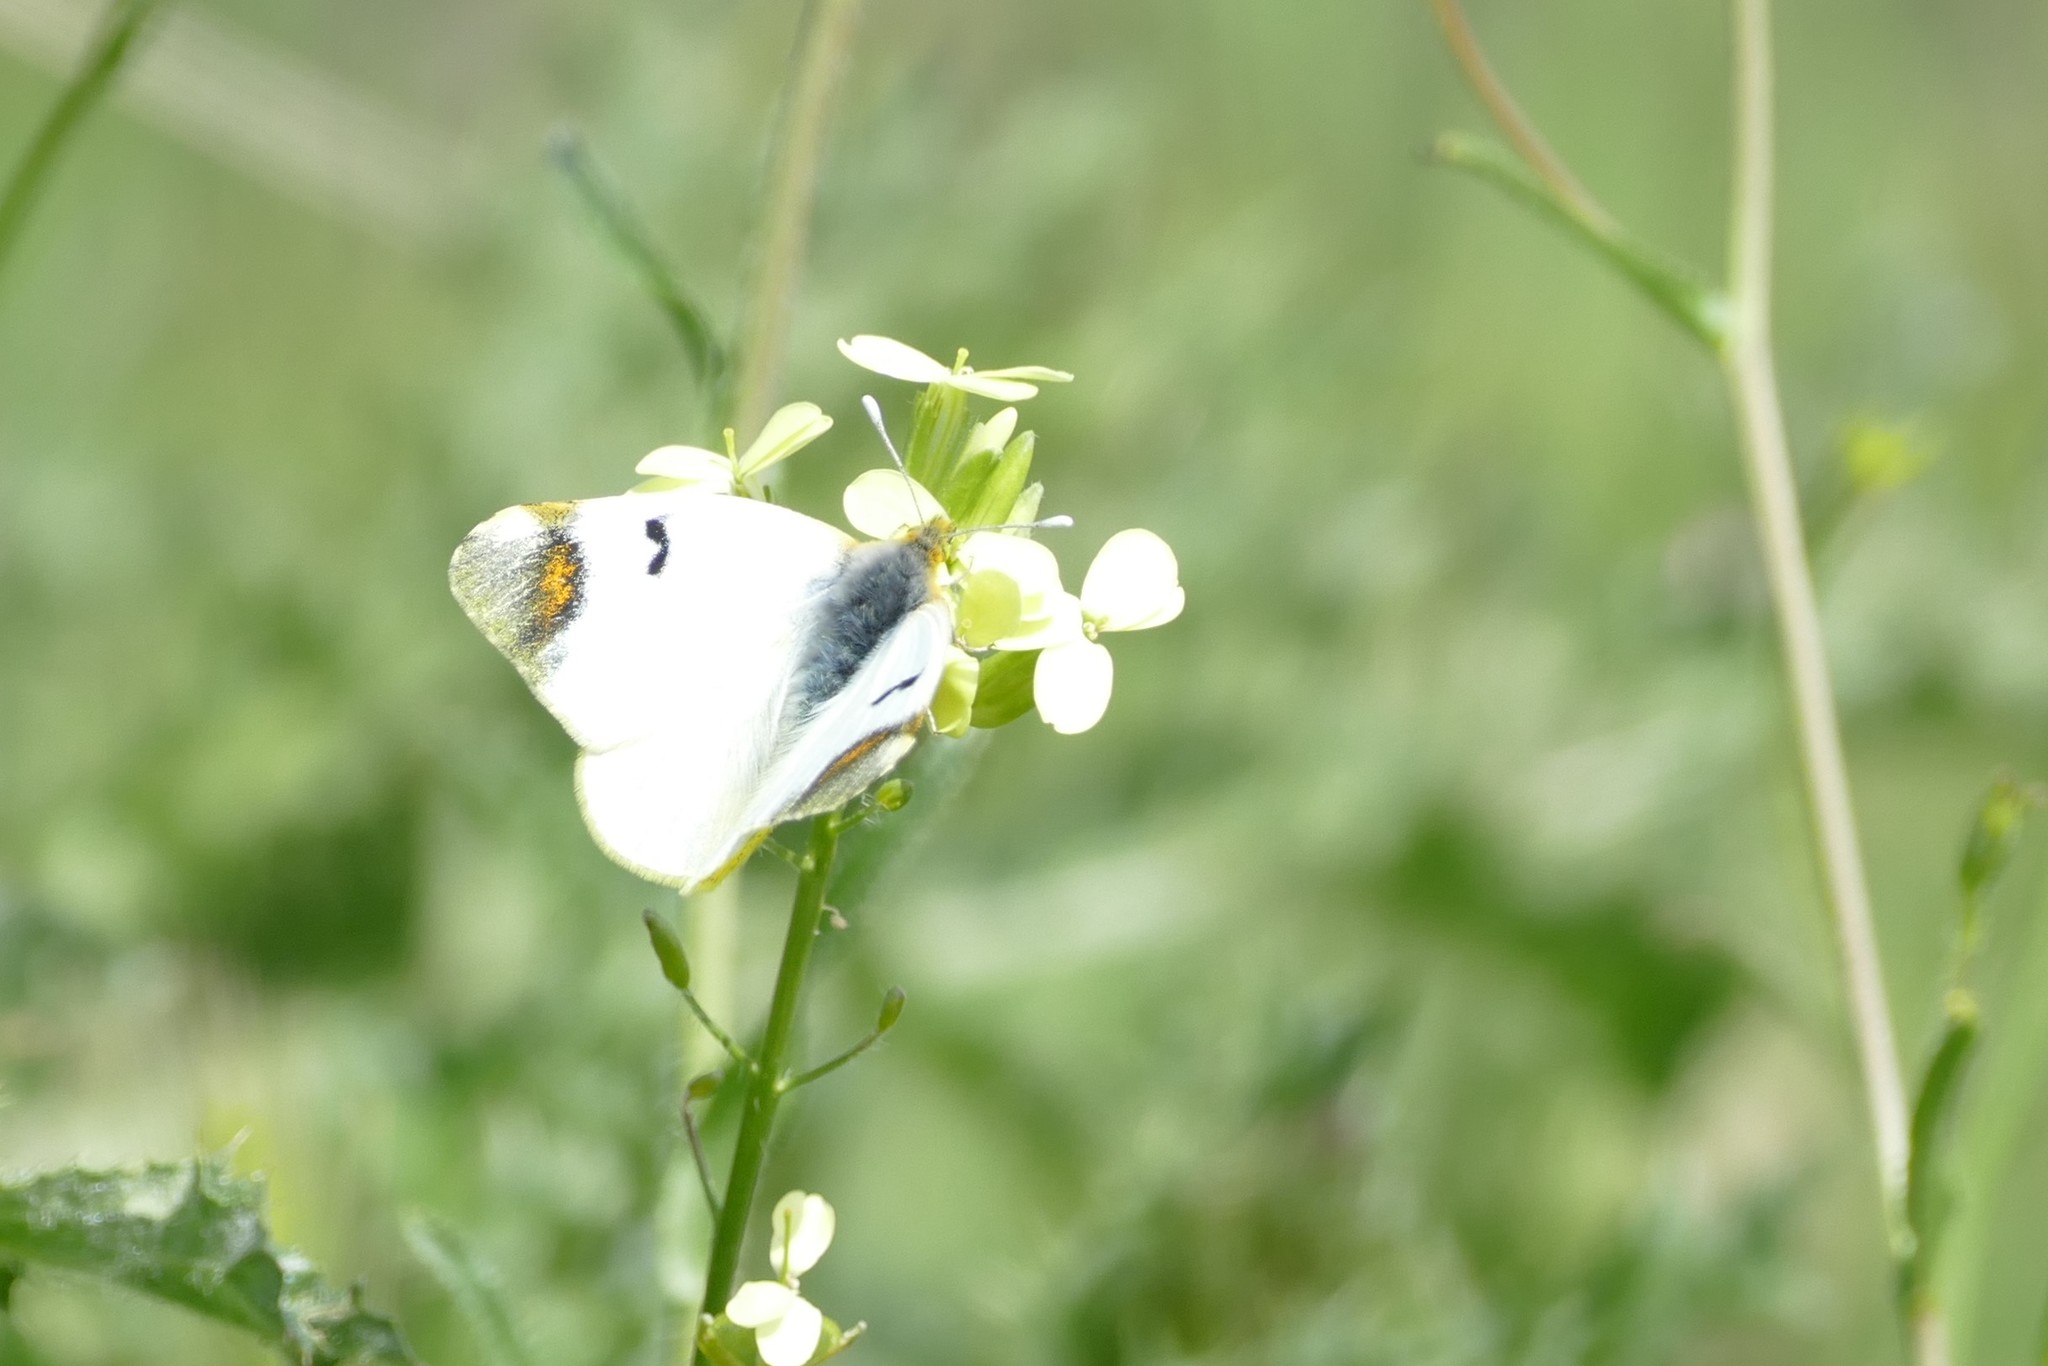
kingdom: Animalia
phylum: Arthropoda
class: Insecta
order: Lepidoptera
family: Pieridae
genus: Zegris
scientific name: Zegris eupheme
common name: Sooty orange tip
